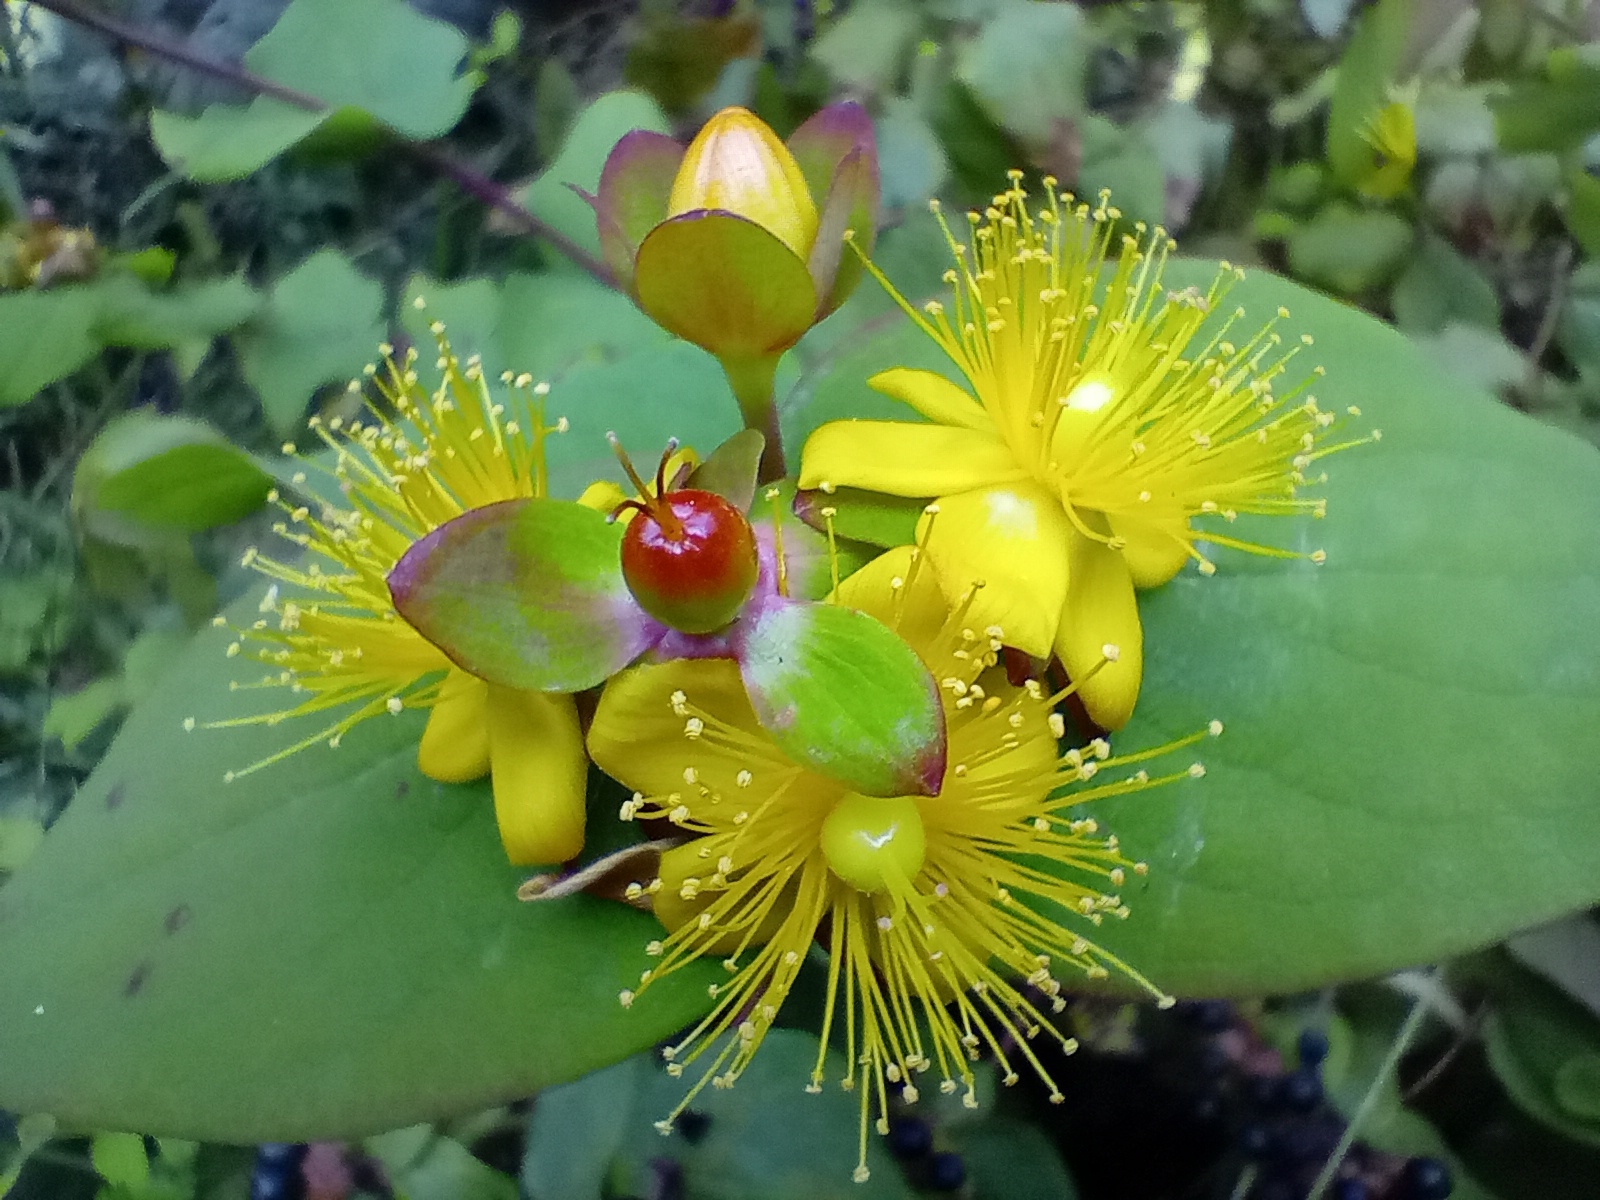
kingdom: Plantae
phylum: Tracheophyta
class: Magnoliopsida
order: Malpighiales
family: Hypericaceae
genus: Hypericum
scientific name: Hypericum androsaemum
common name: Sweet-amber
